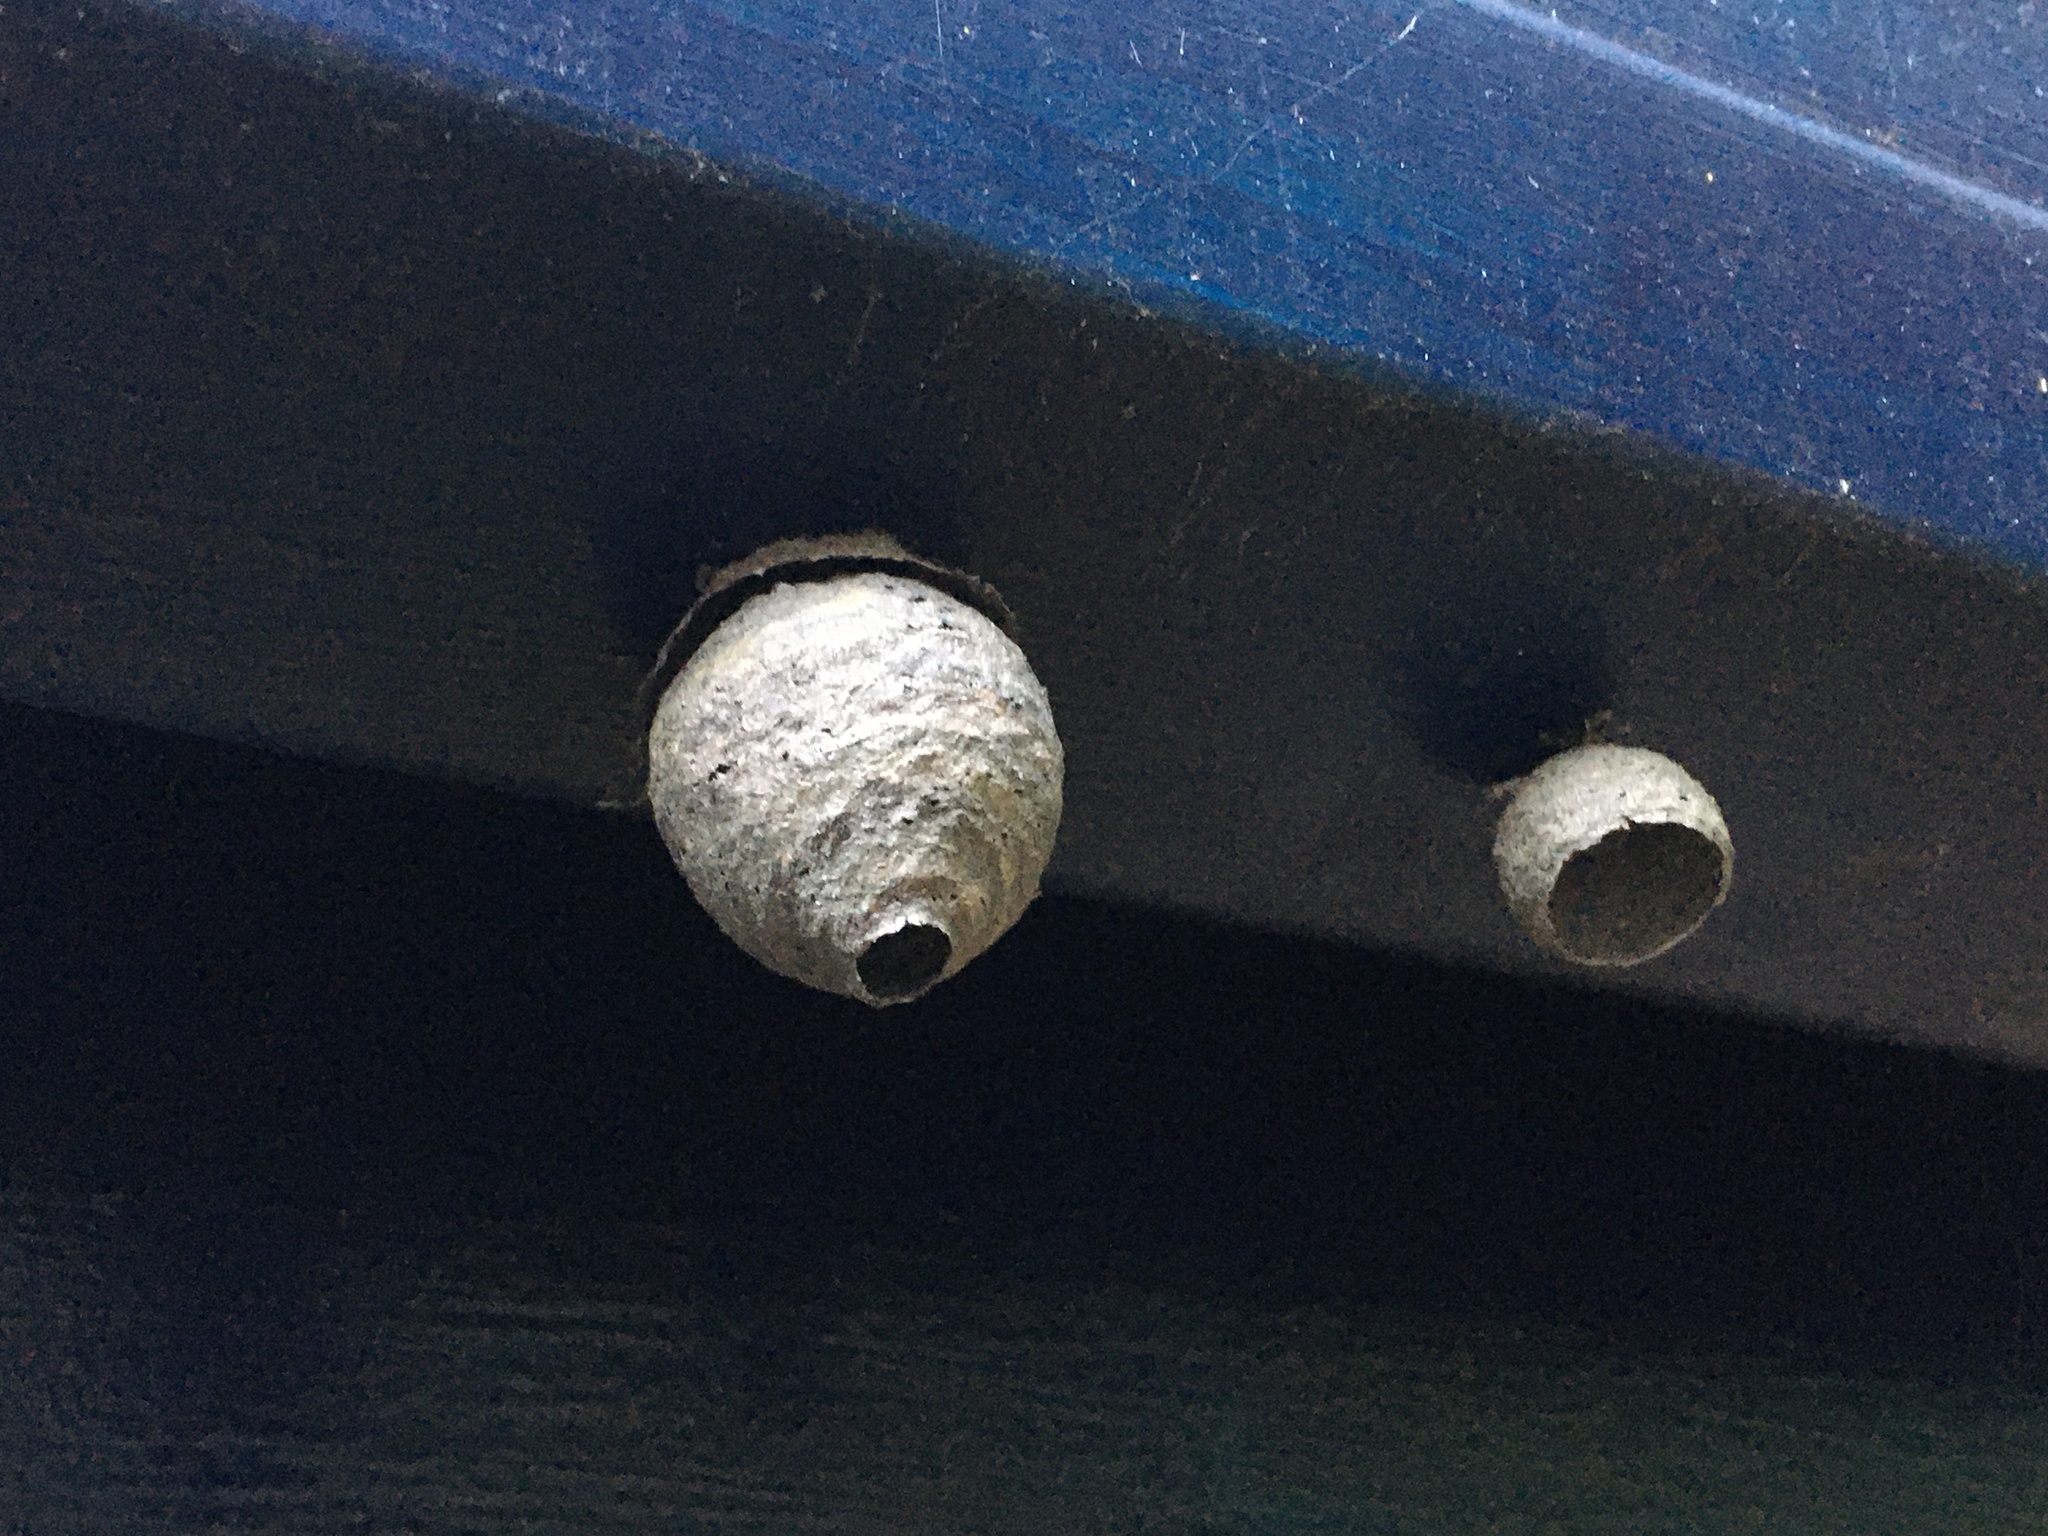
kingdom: Animalia
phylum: Arthropoda
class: Insecta
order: Hymenoptera
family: Vespidae
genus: Dolichovespula
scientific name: Dolichovespula
